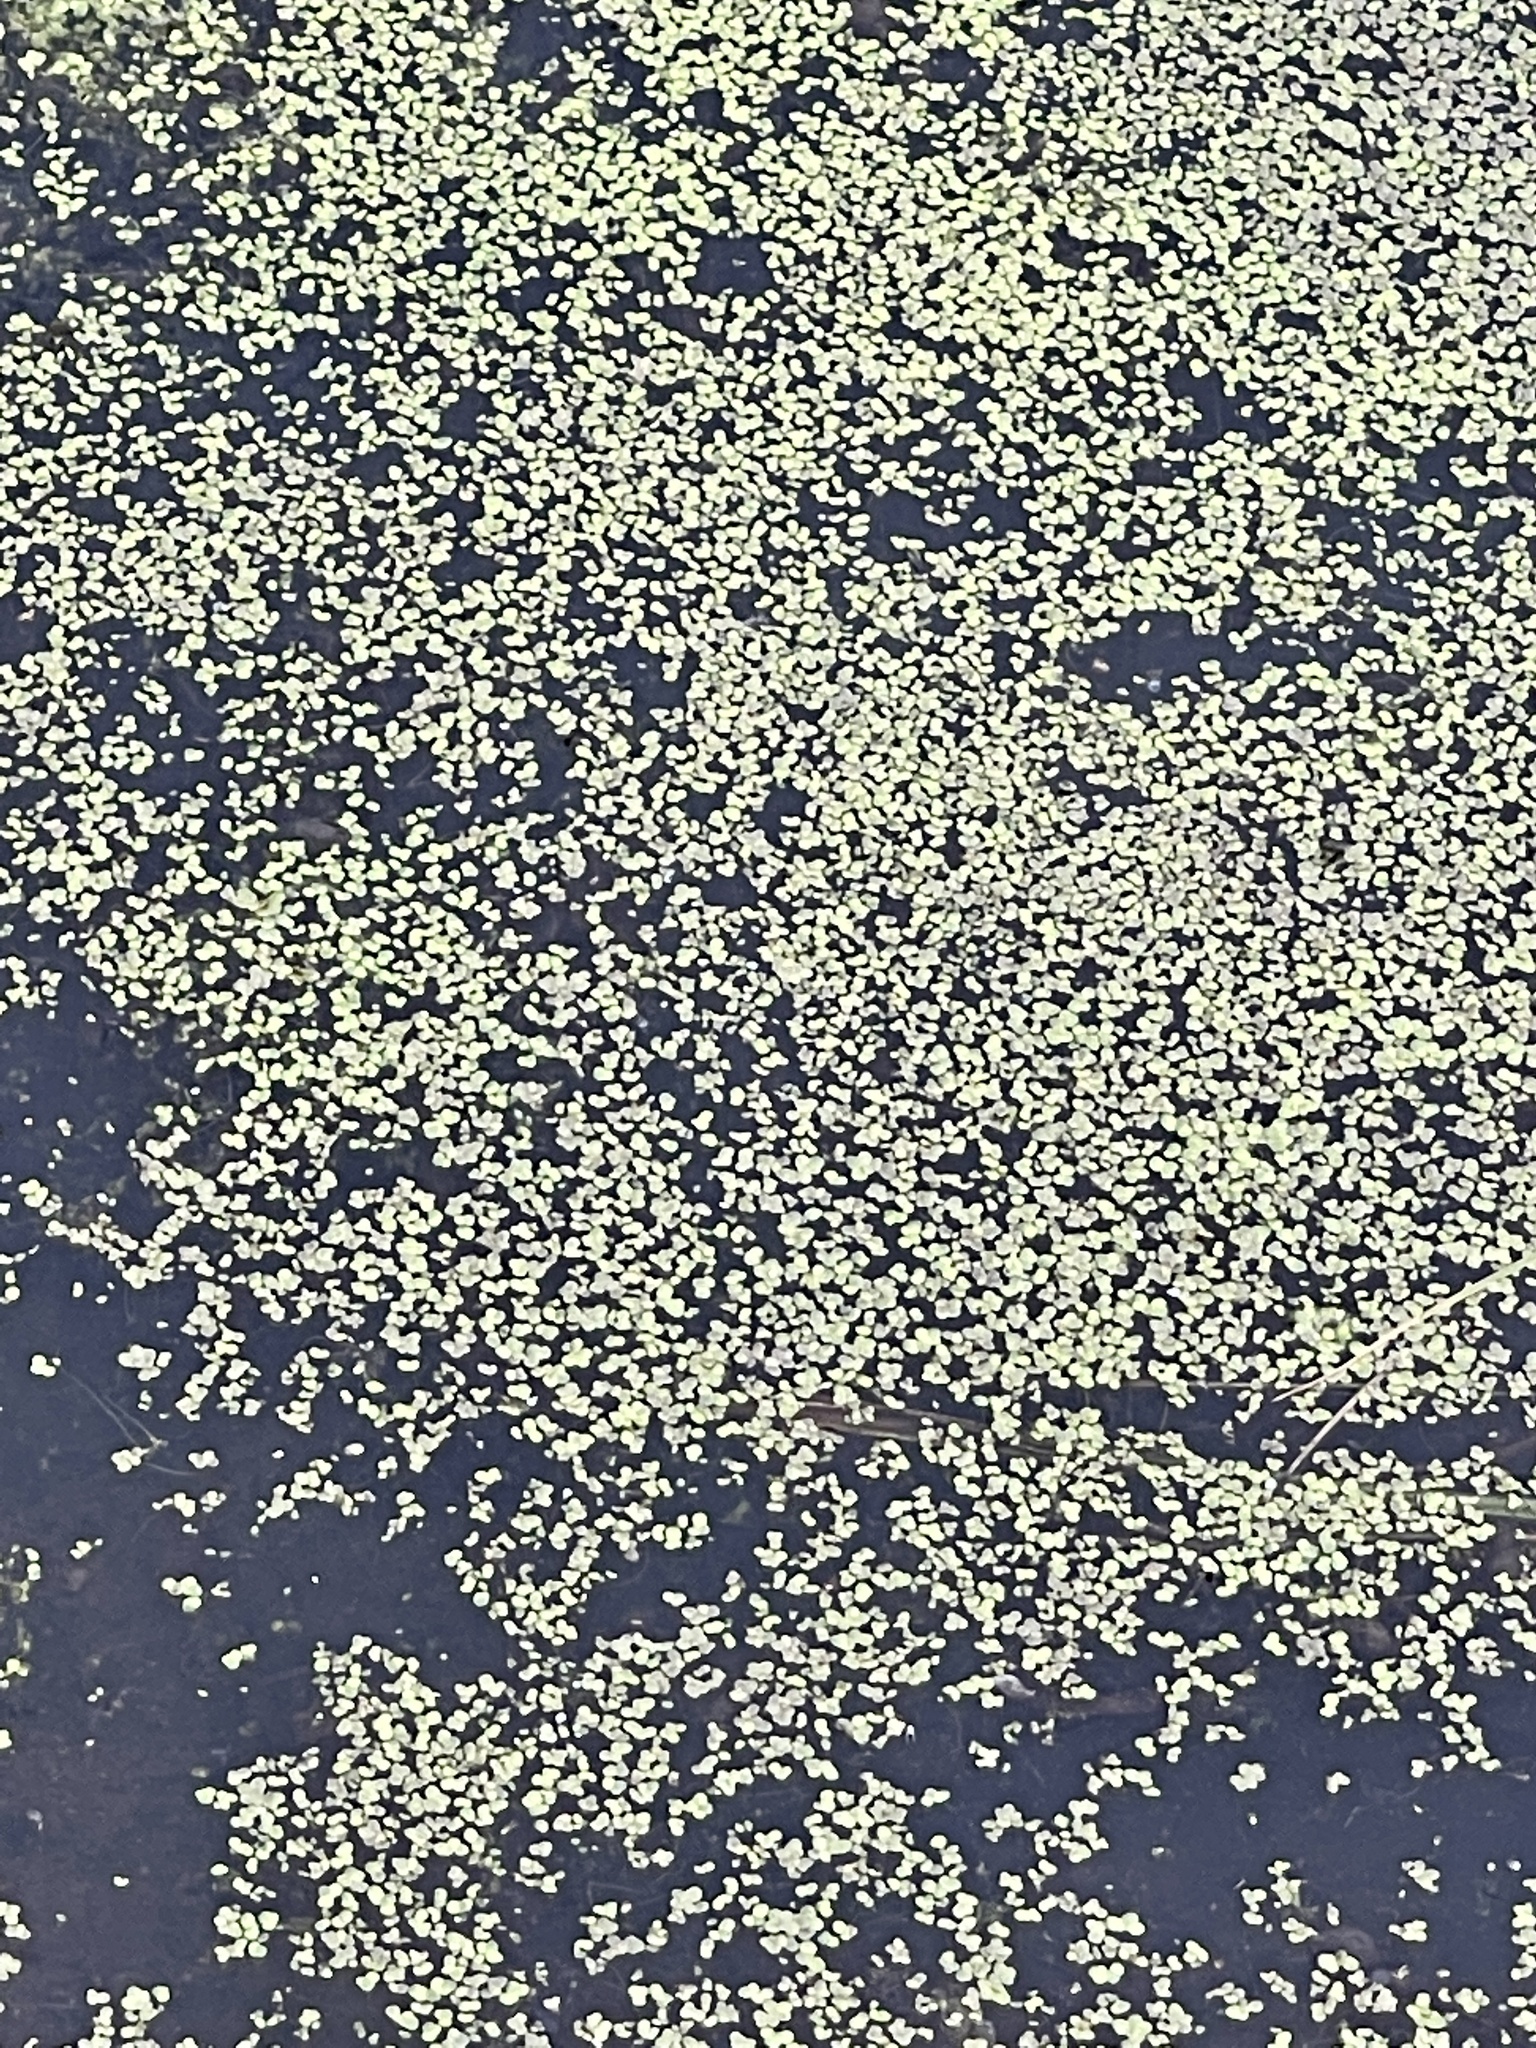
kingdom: Plantae
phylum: Tracheophyta
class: Liliopsida
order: Alismatales
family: Araceae
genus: Lemna
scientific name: Lemna minor
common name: Common duckweed
